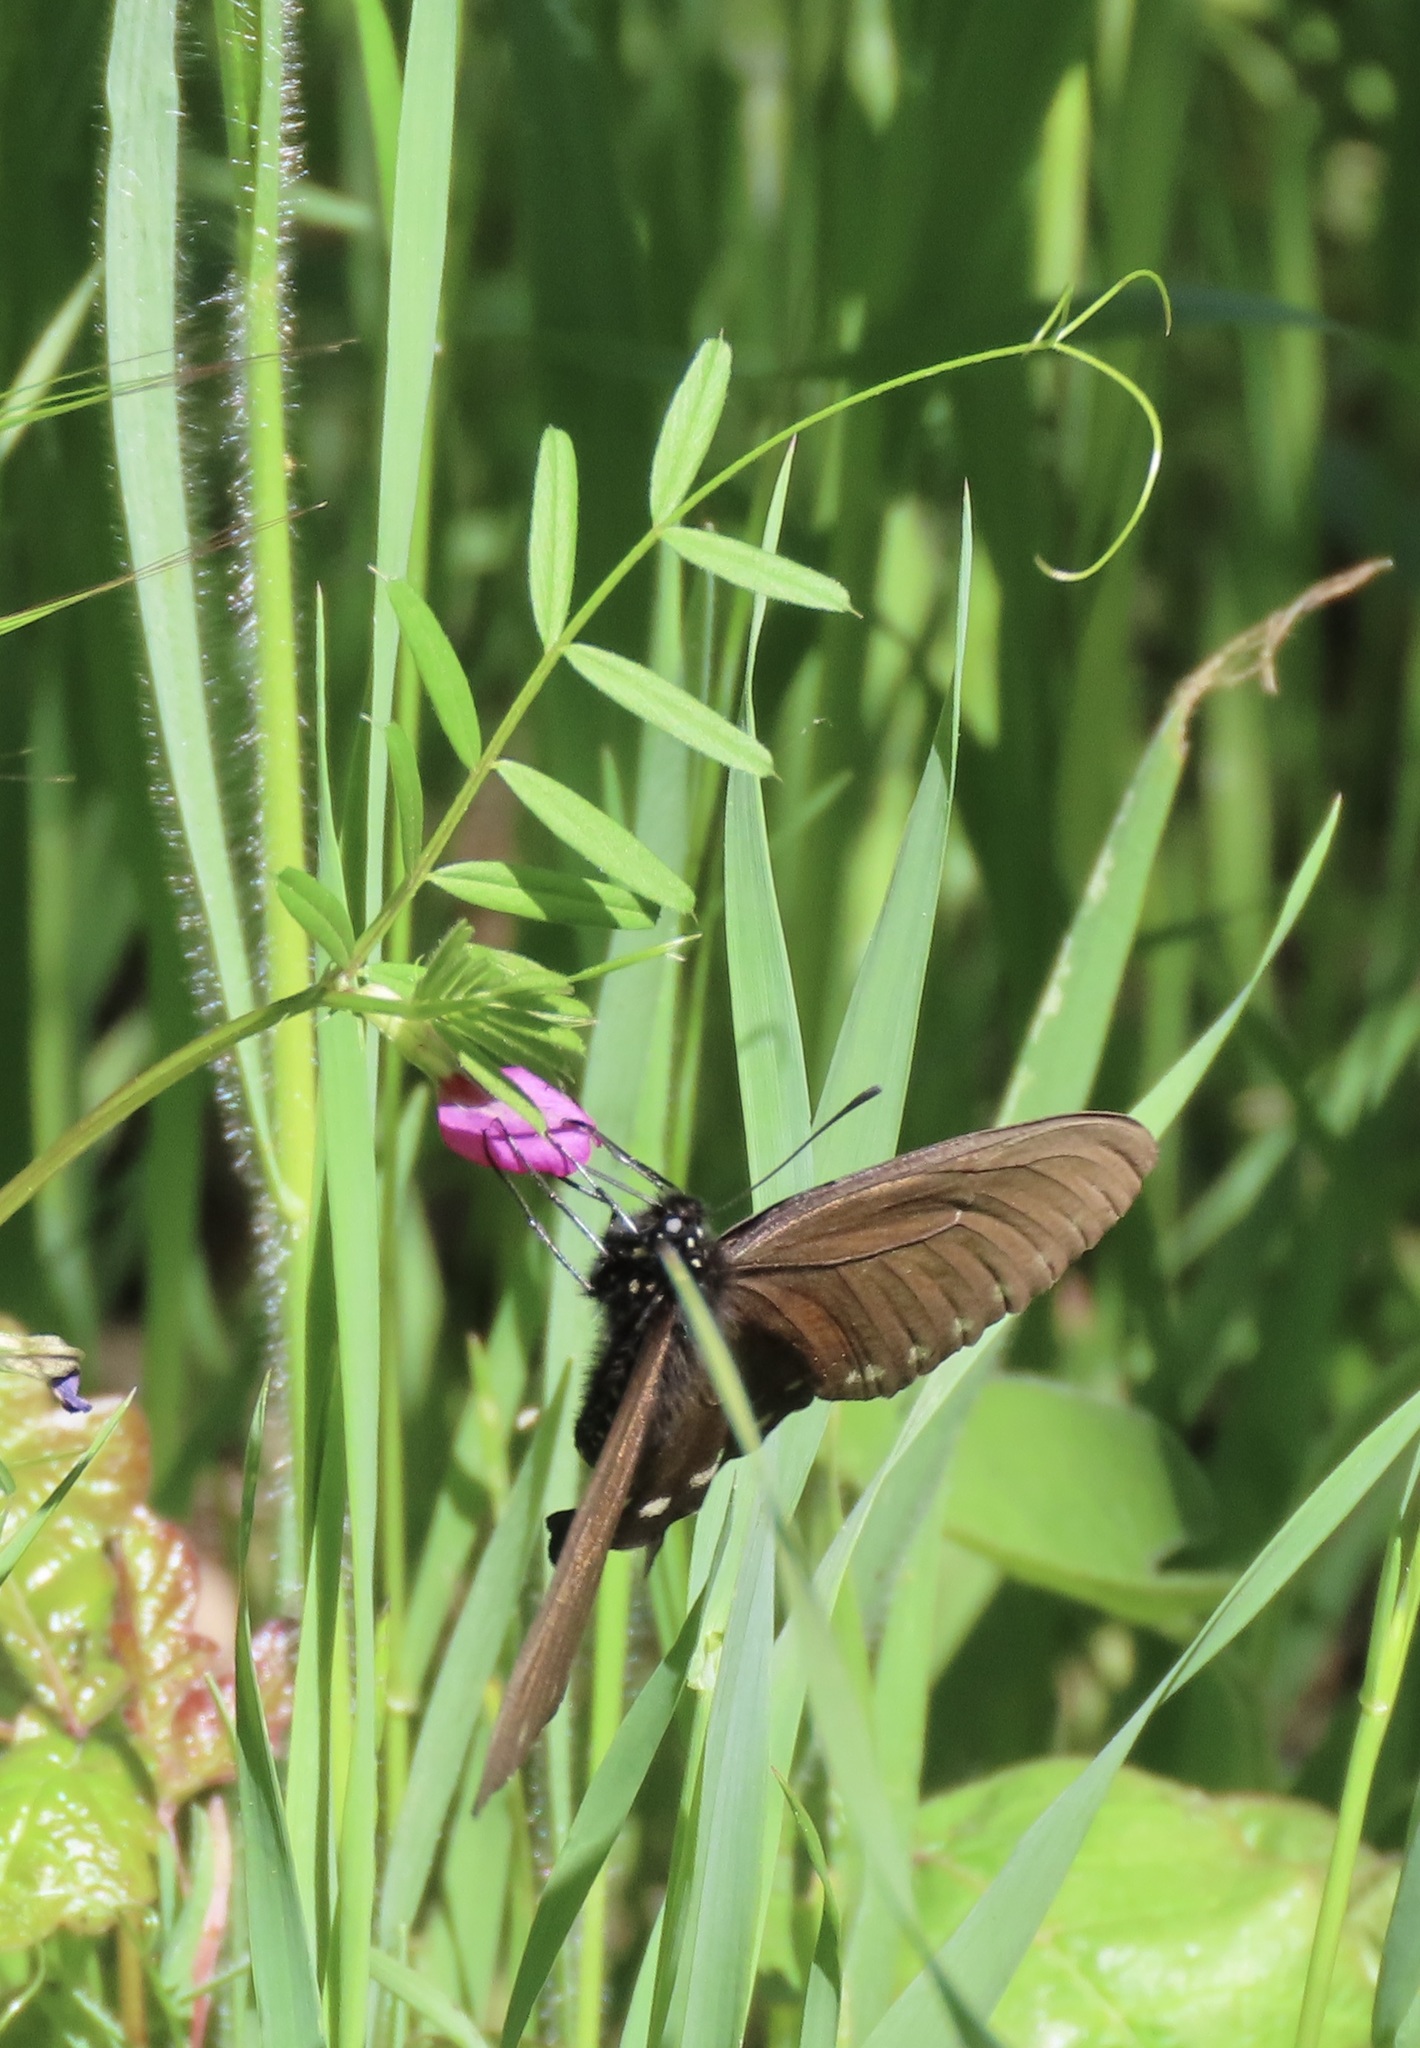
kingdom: Animalia
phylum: Arthropoda
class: Insecta
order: Lepidoptera
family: Papilionidae
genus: Battus
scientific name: Battus philenor
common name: Pipevine swallowtail
